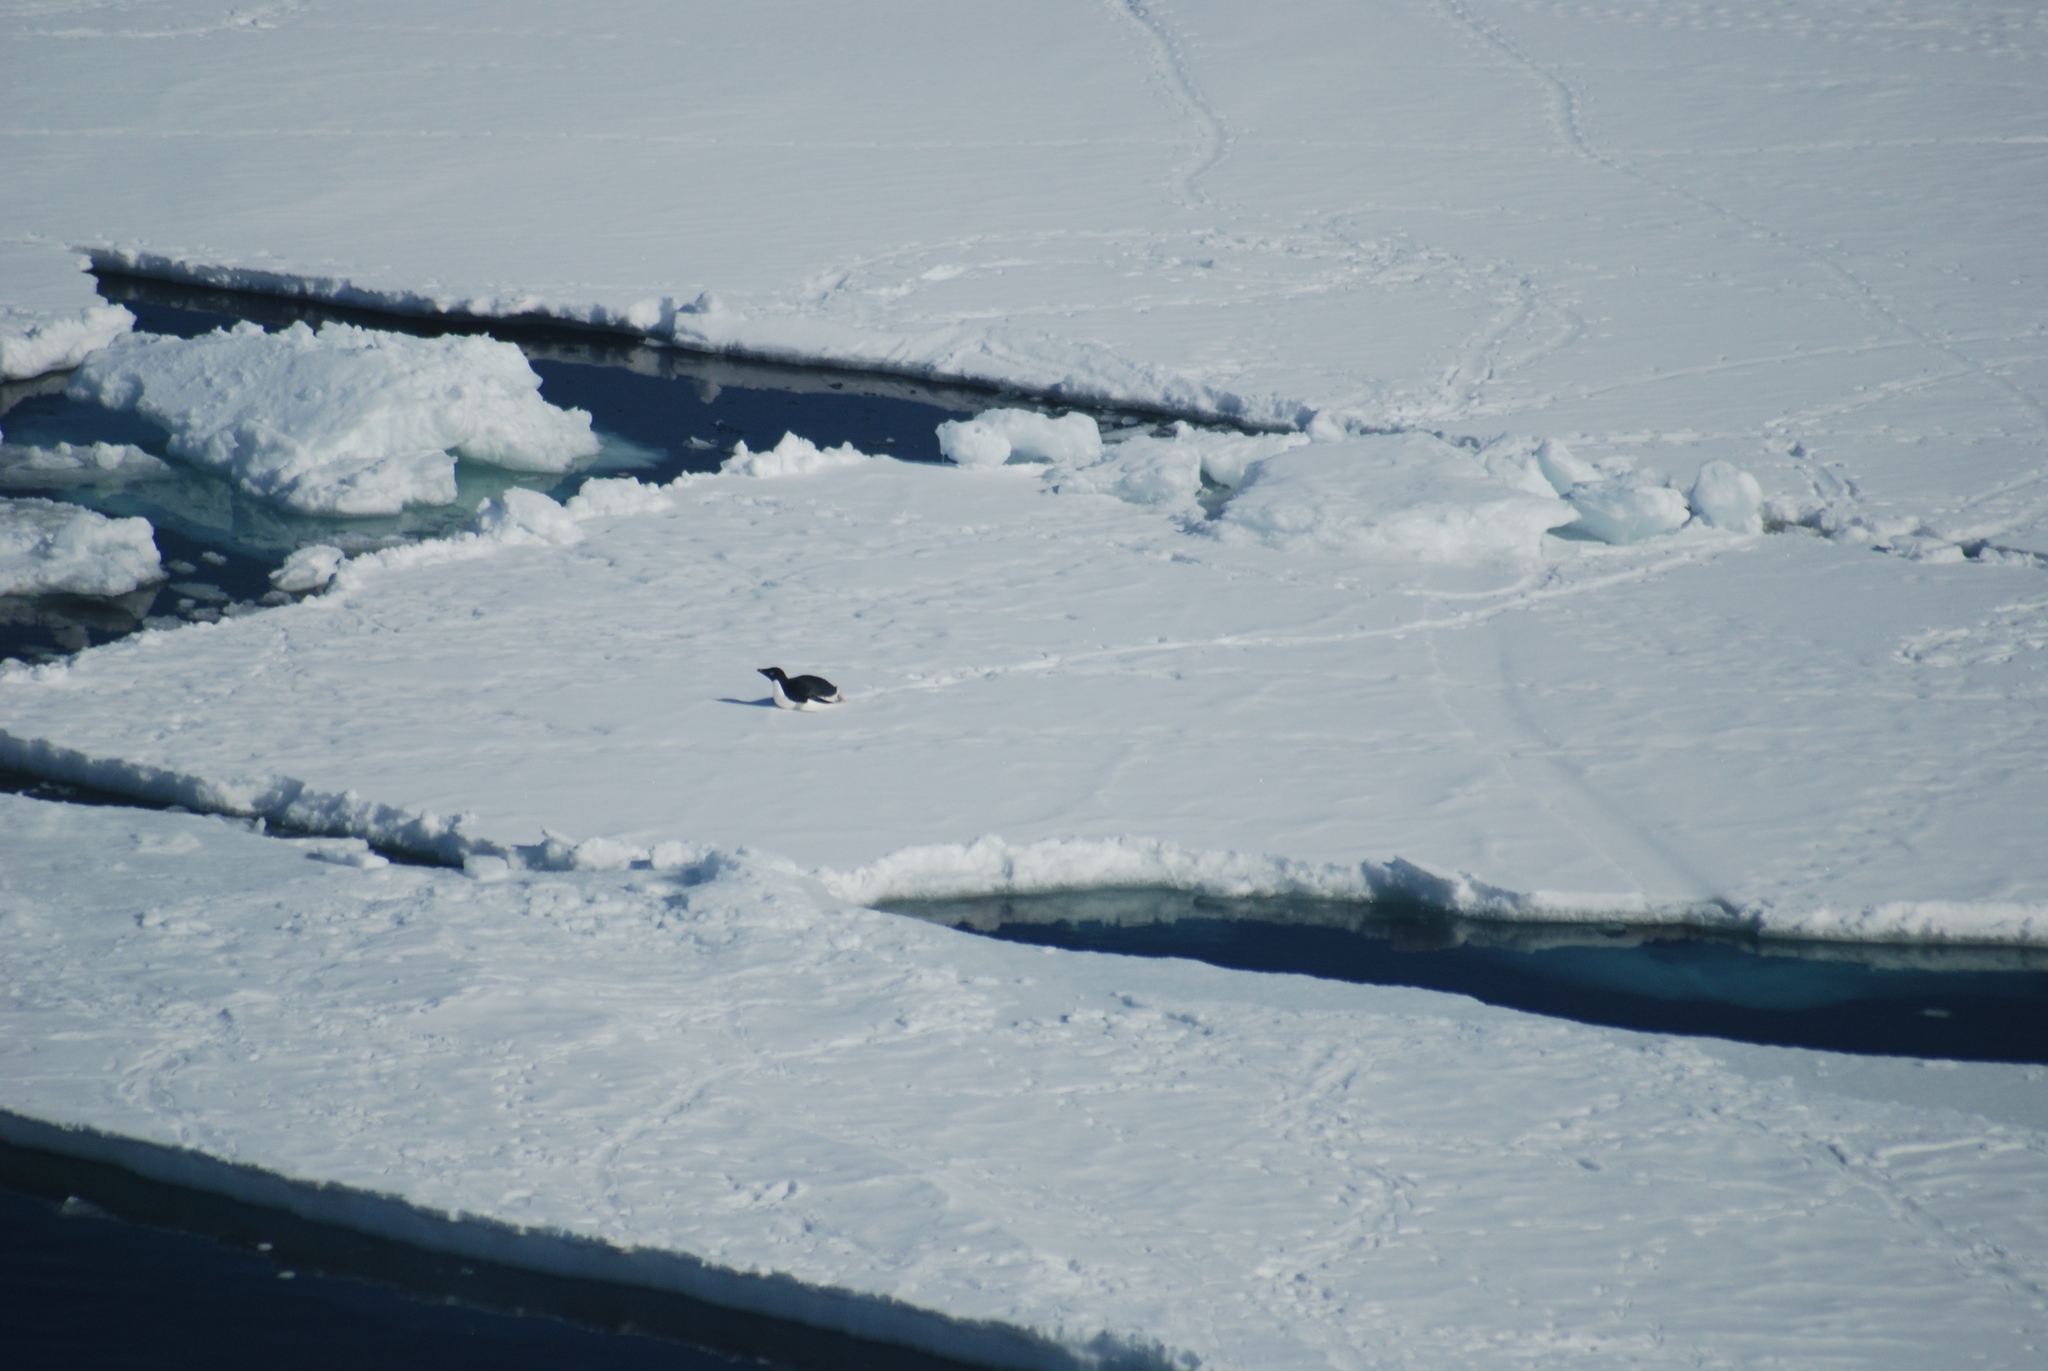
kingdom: Animalia
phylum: Chordata
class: Aves
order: Sphenisciformes
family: Spheniscidae
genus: Pygoscelis
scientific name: Pygoscelis adeliae
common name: Adelie penguin
